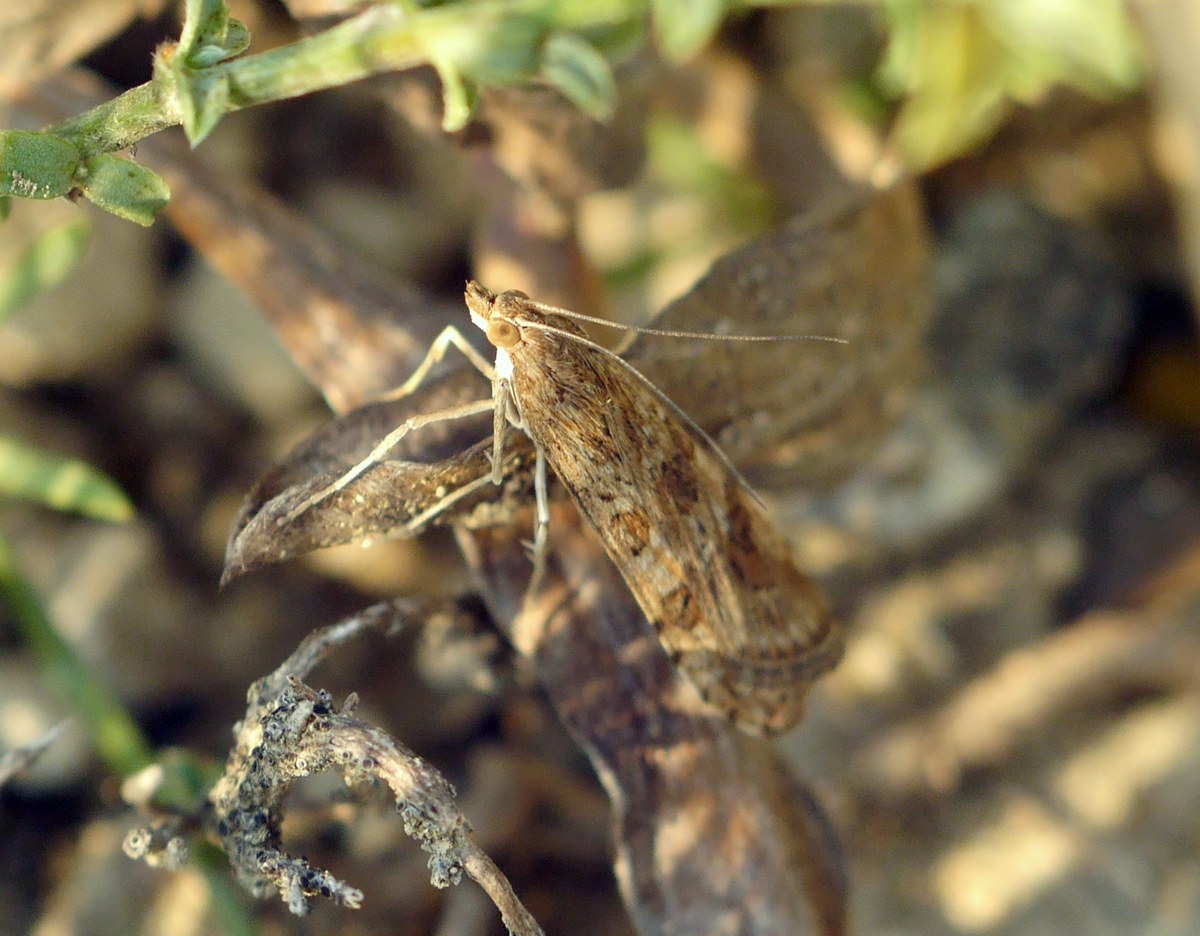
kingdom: Animalia
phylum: Arthropoda
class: Insecta
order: Lepidoptera
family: Crambidae
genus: Nomophila
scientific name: Nomophila noctuella
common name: Rush veneer
